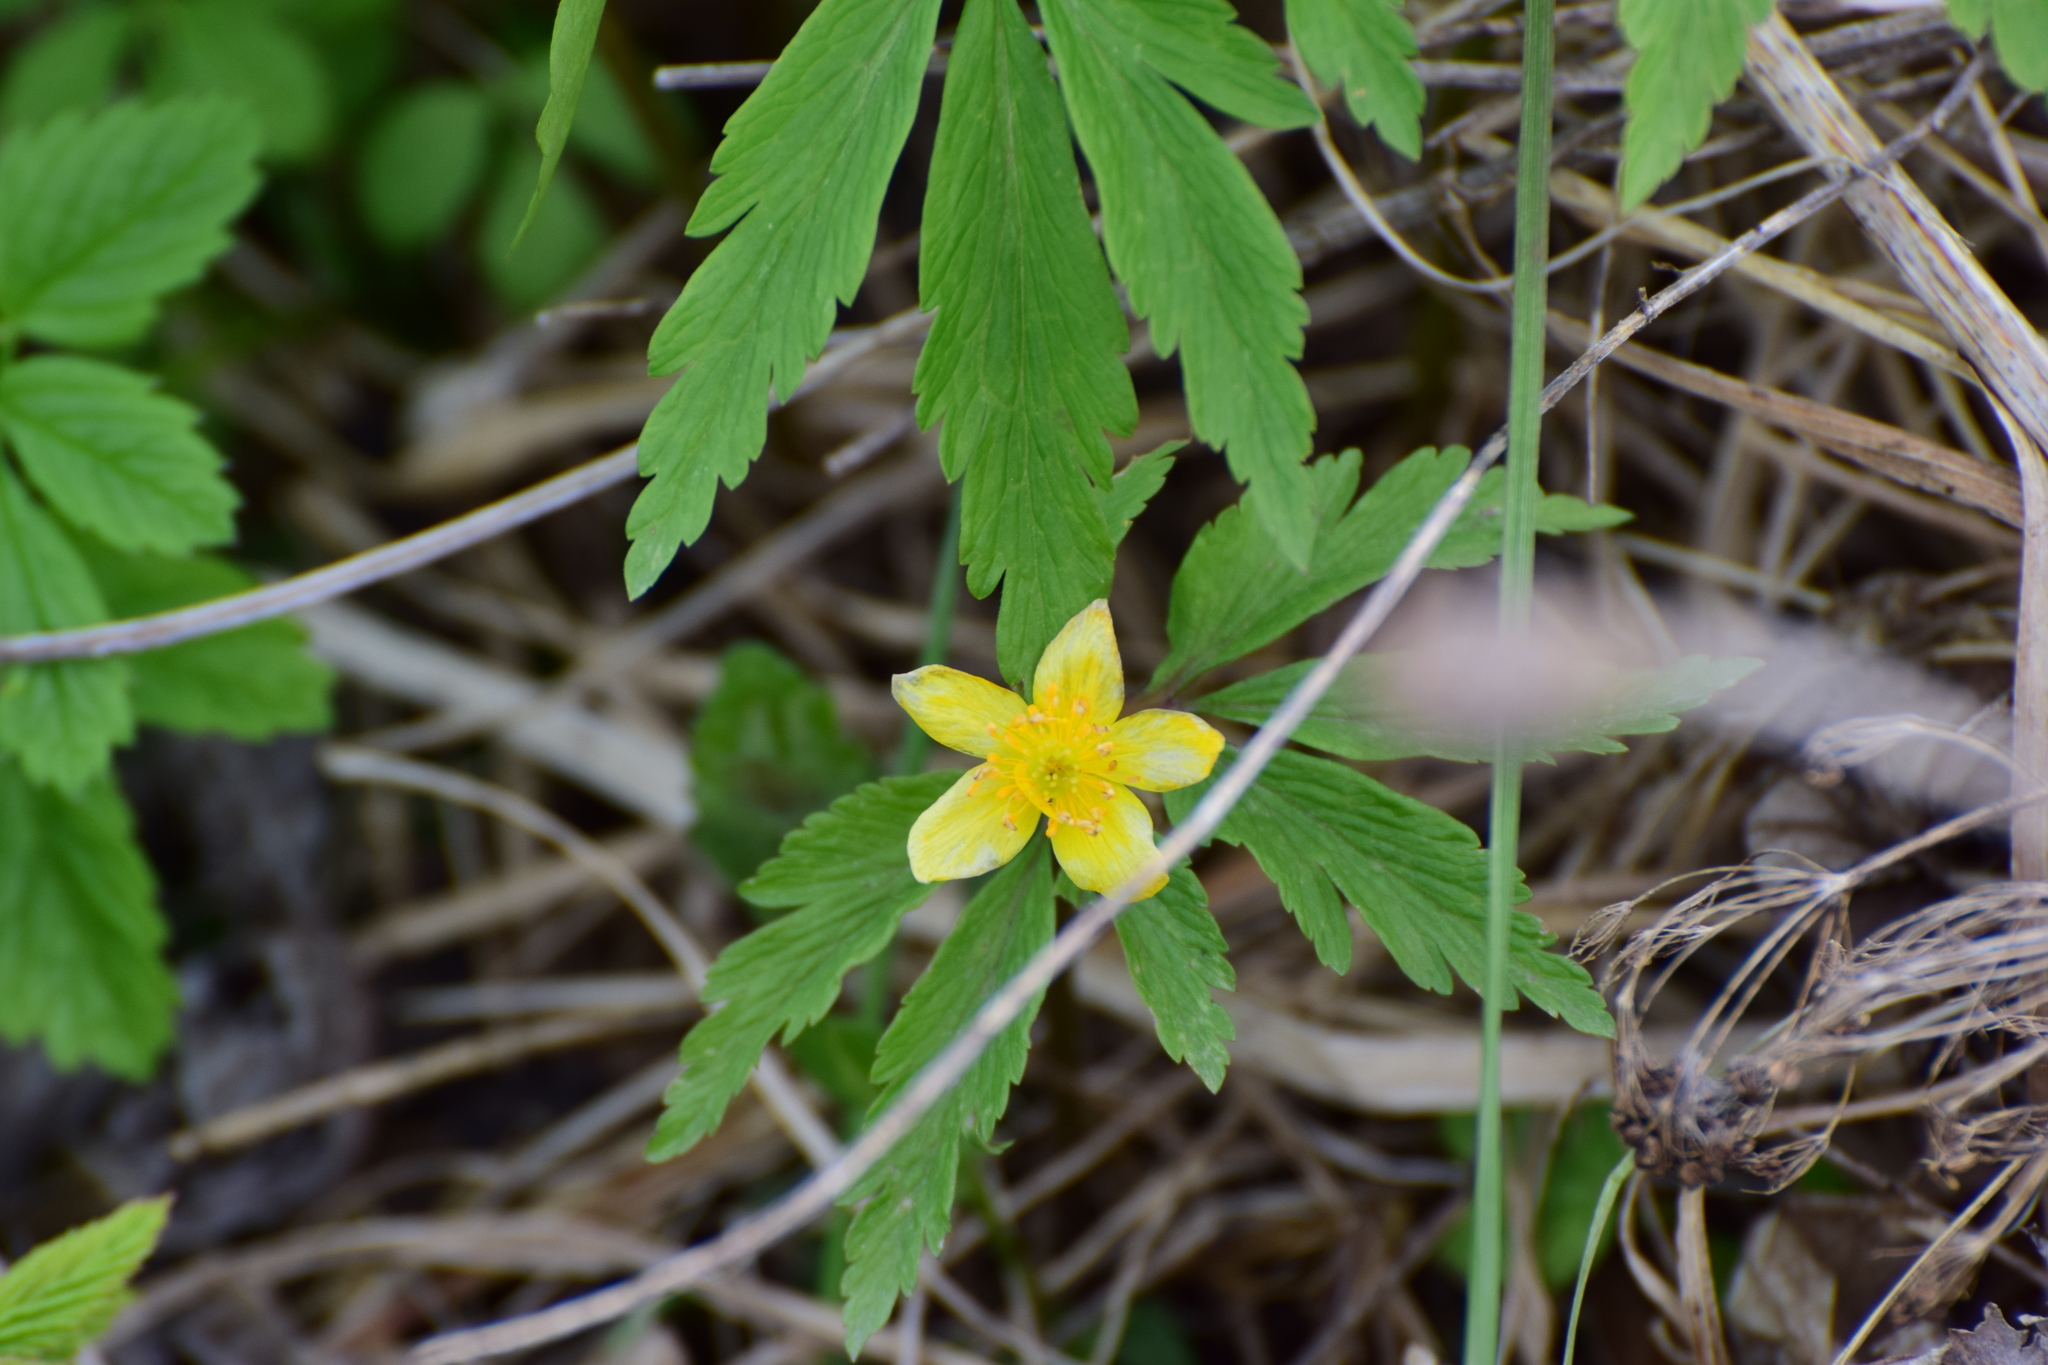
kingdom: Plantae
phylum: Tracheophyta
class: Magnoliopsida
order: Ranunculales
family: Ranunculaceae
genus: Anemone
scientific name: Anemone ranunculoides
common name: Yellow anemone
